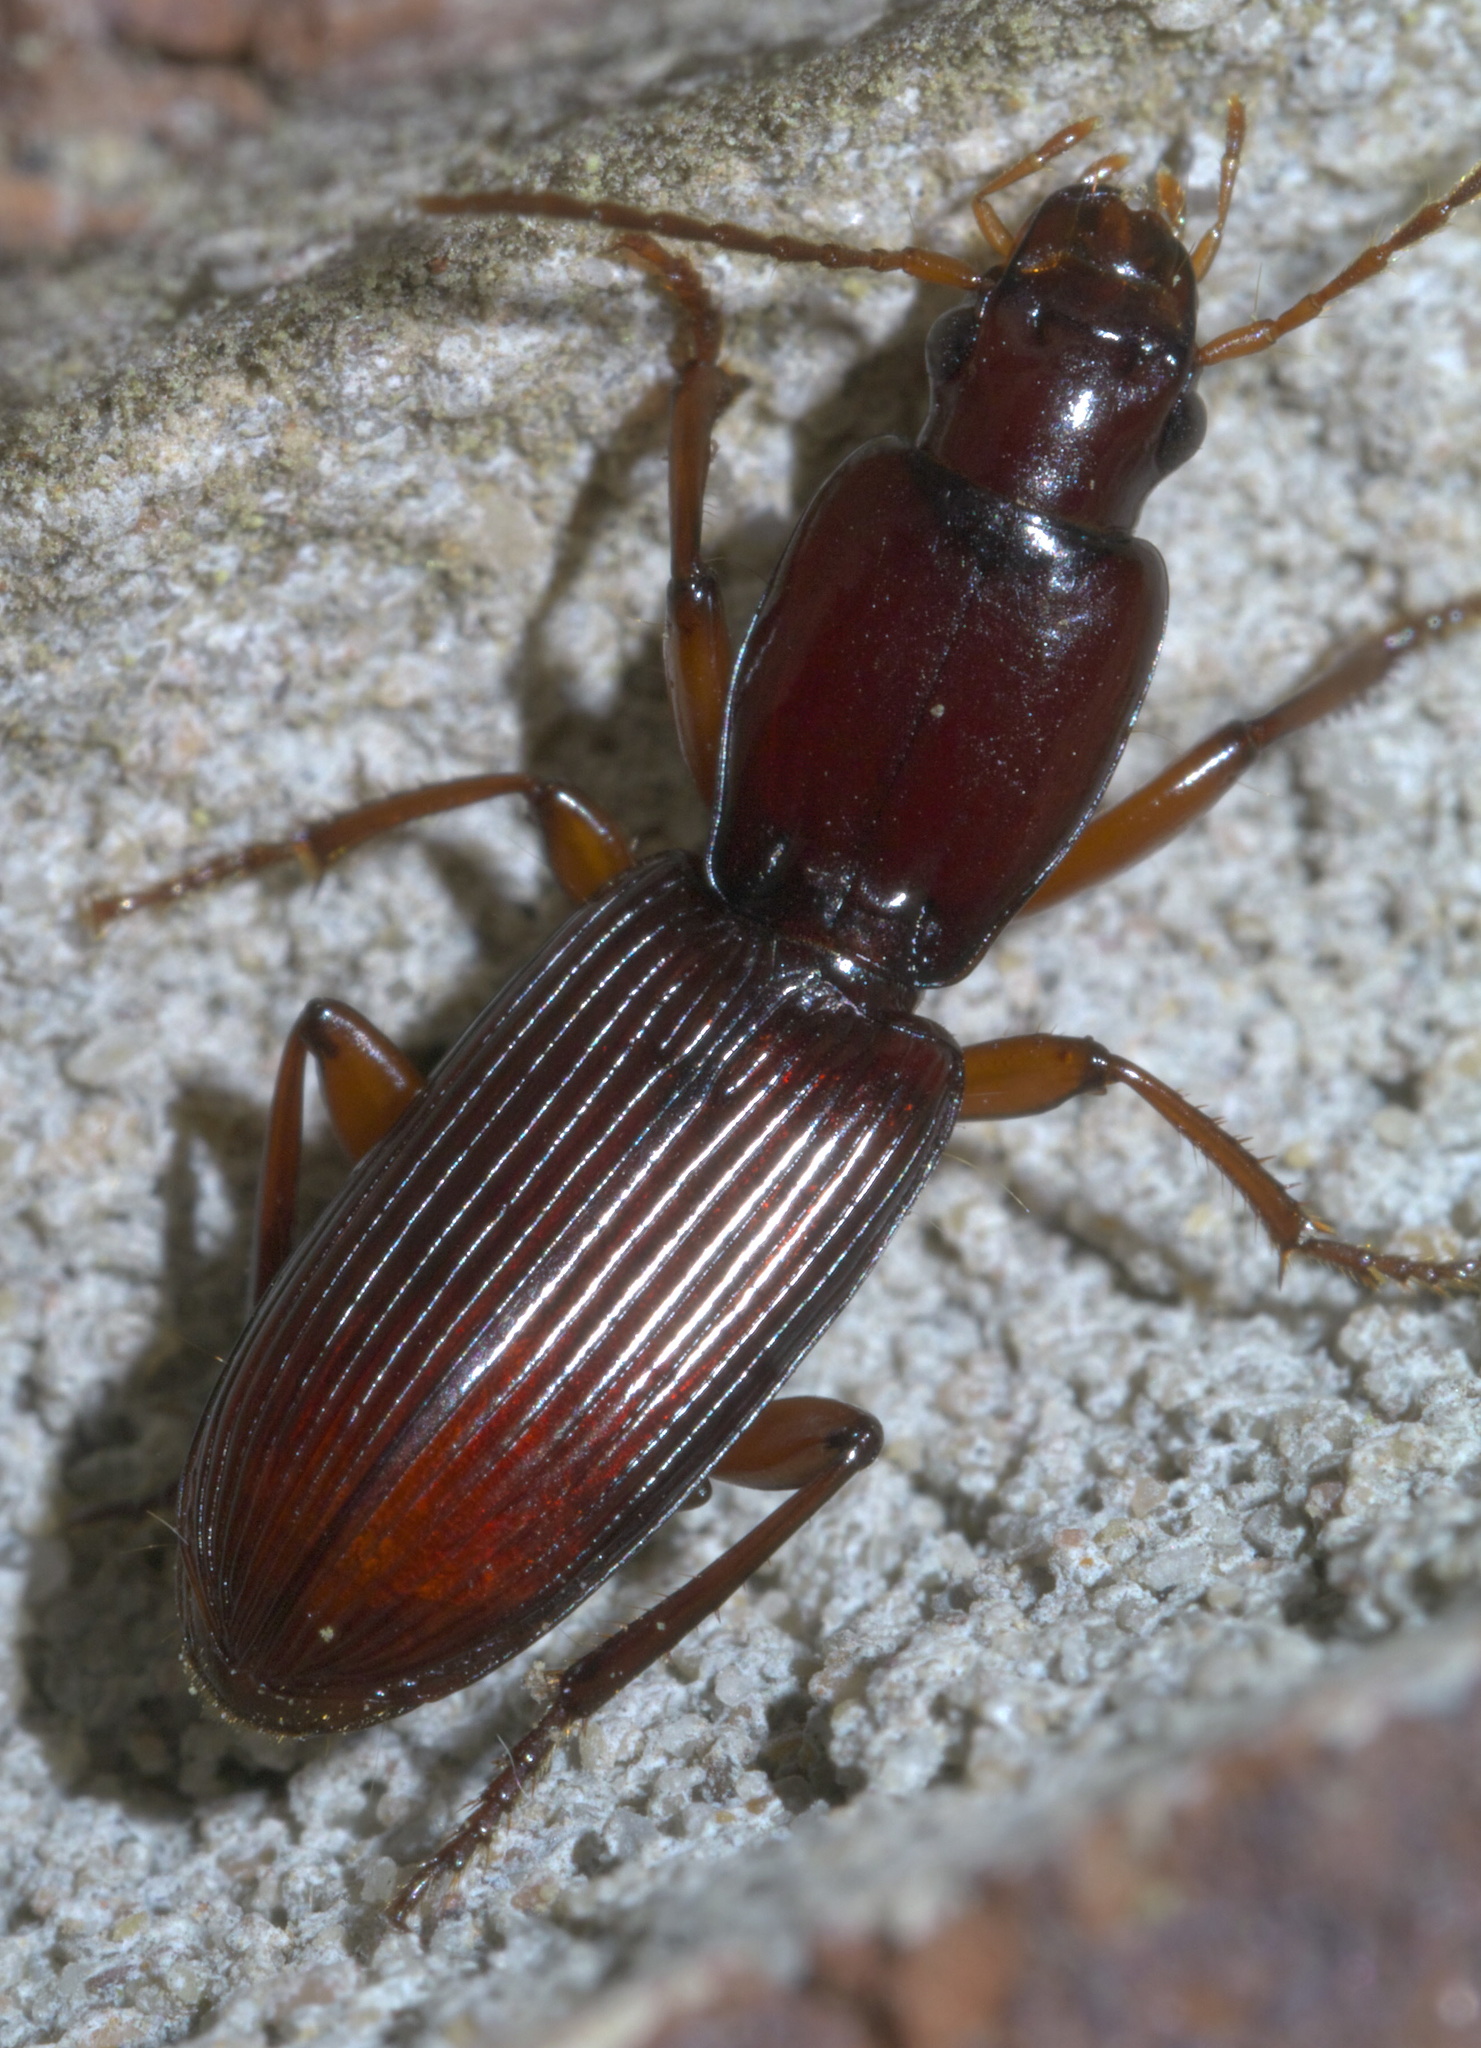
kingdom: Animalia
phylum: Arthropoda
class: Insecta
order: Coleoptera
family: Carabidae
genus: Stenomorphus
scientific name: Stenomorphus californicus
